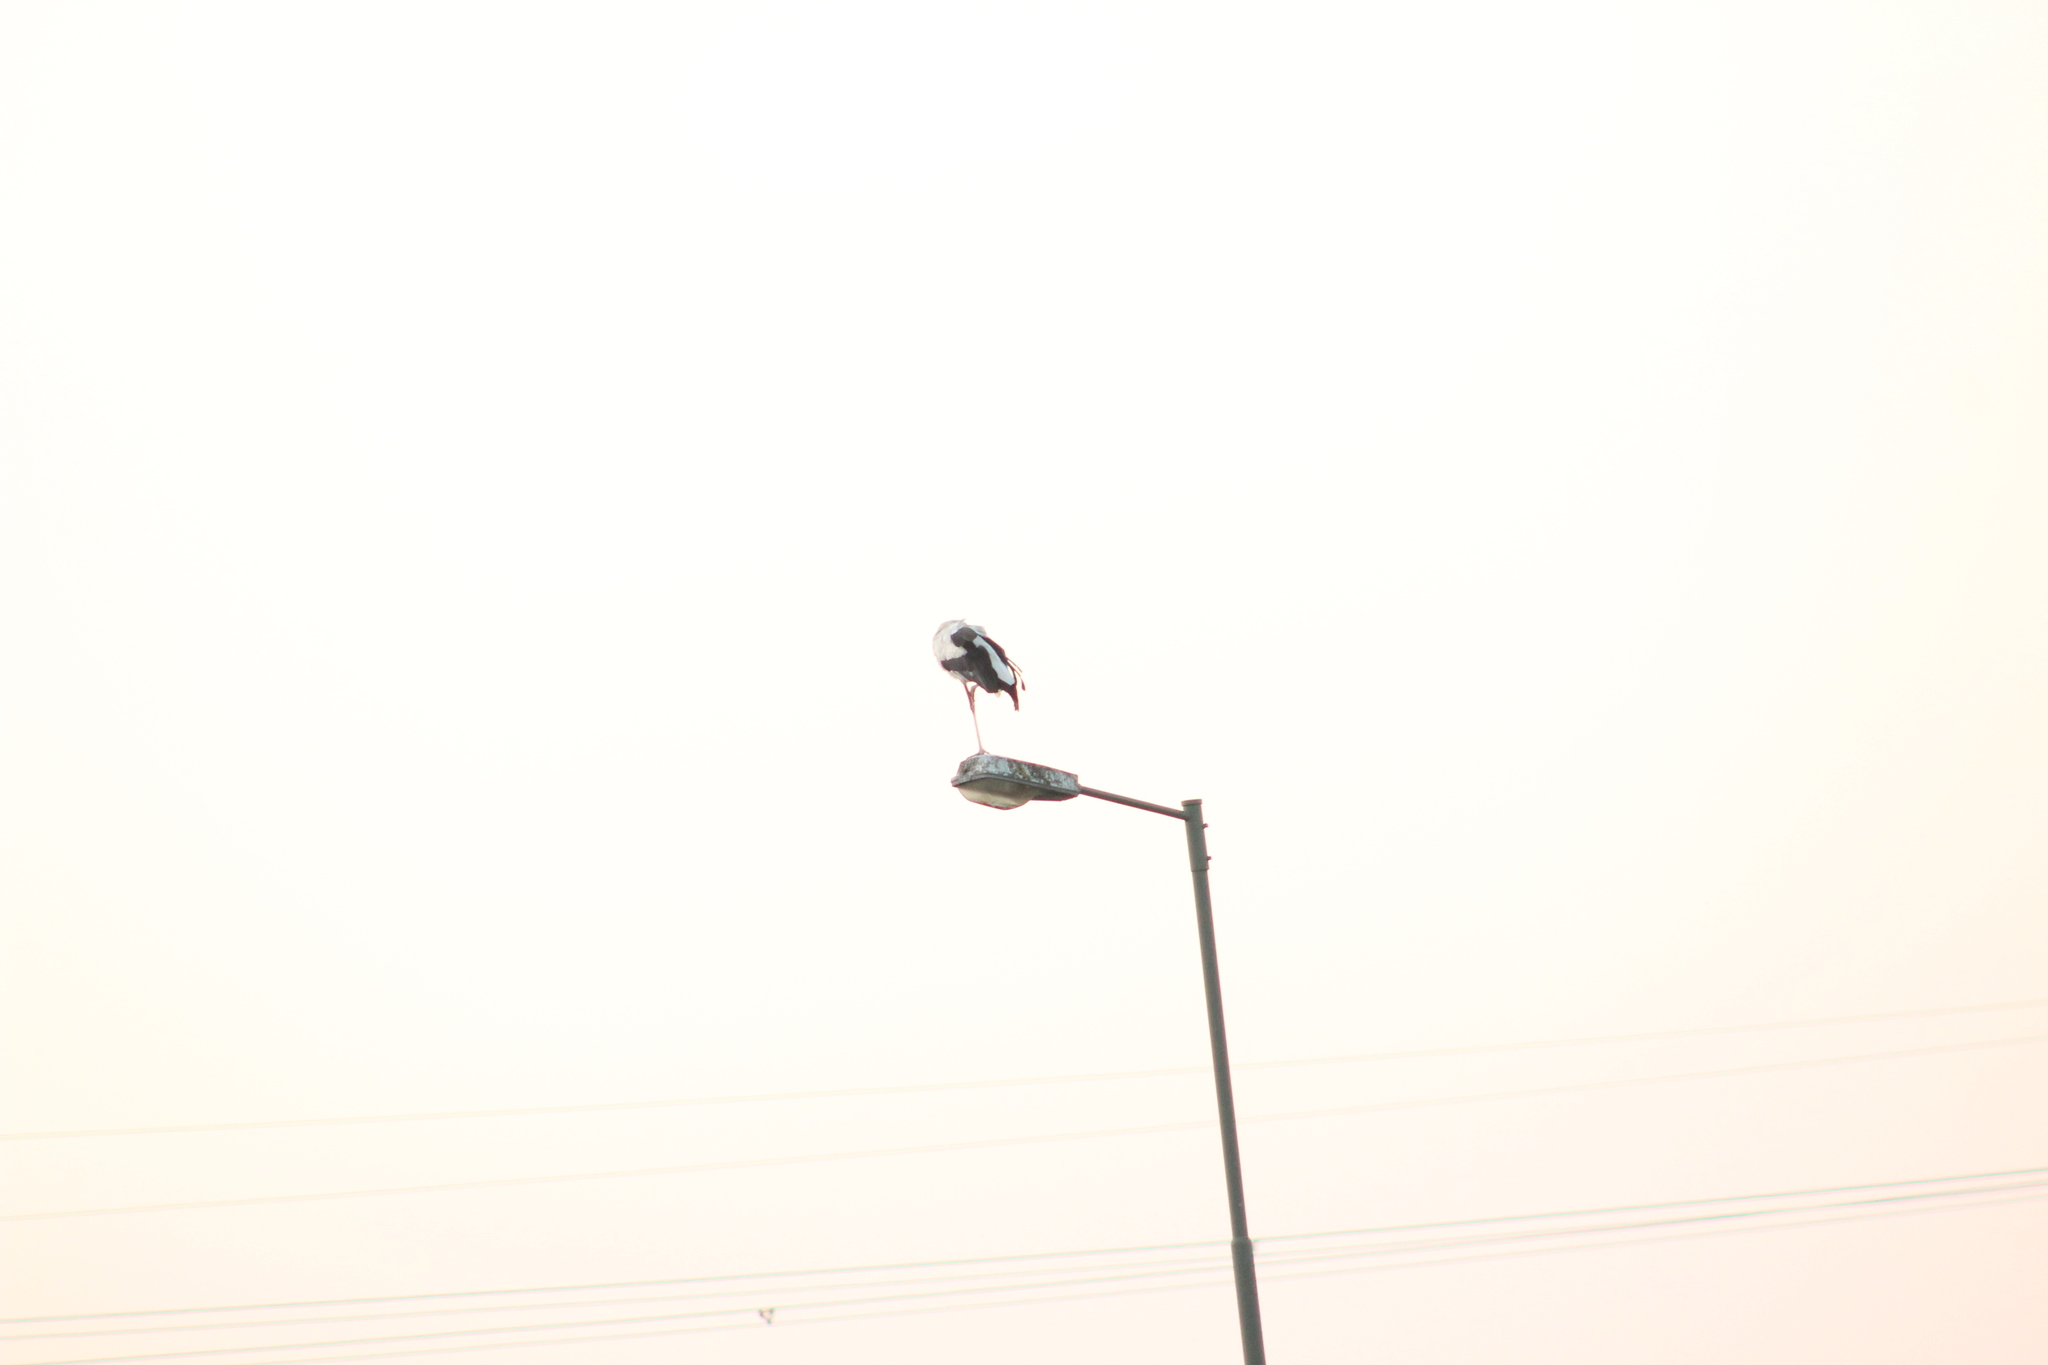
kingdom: Animalia
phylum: Chordata
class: Aves
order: Ciconiiformes
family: Ciconiidae
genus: Ciconia
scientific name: Ciconia ciconia
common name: White stork
